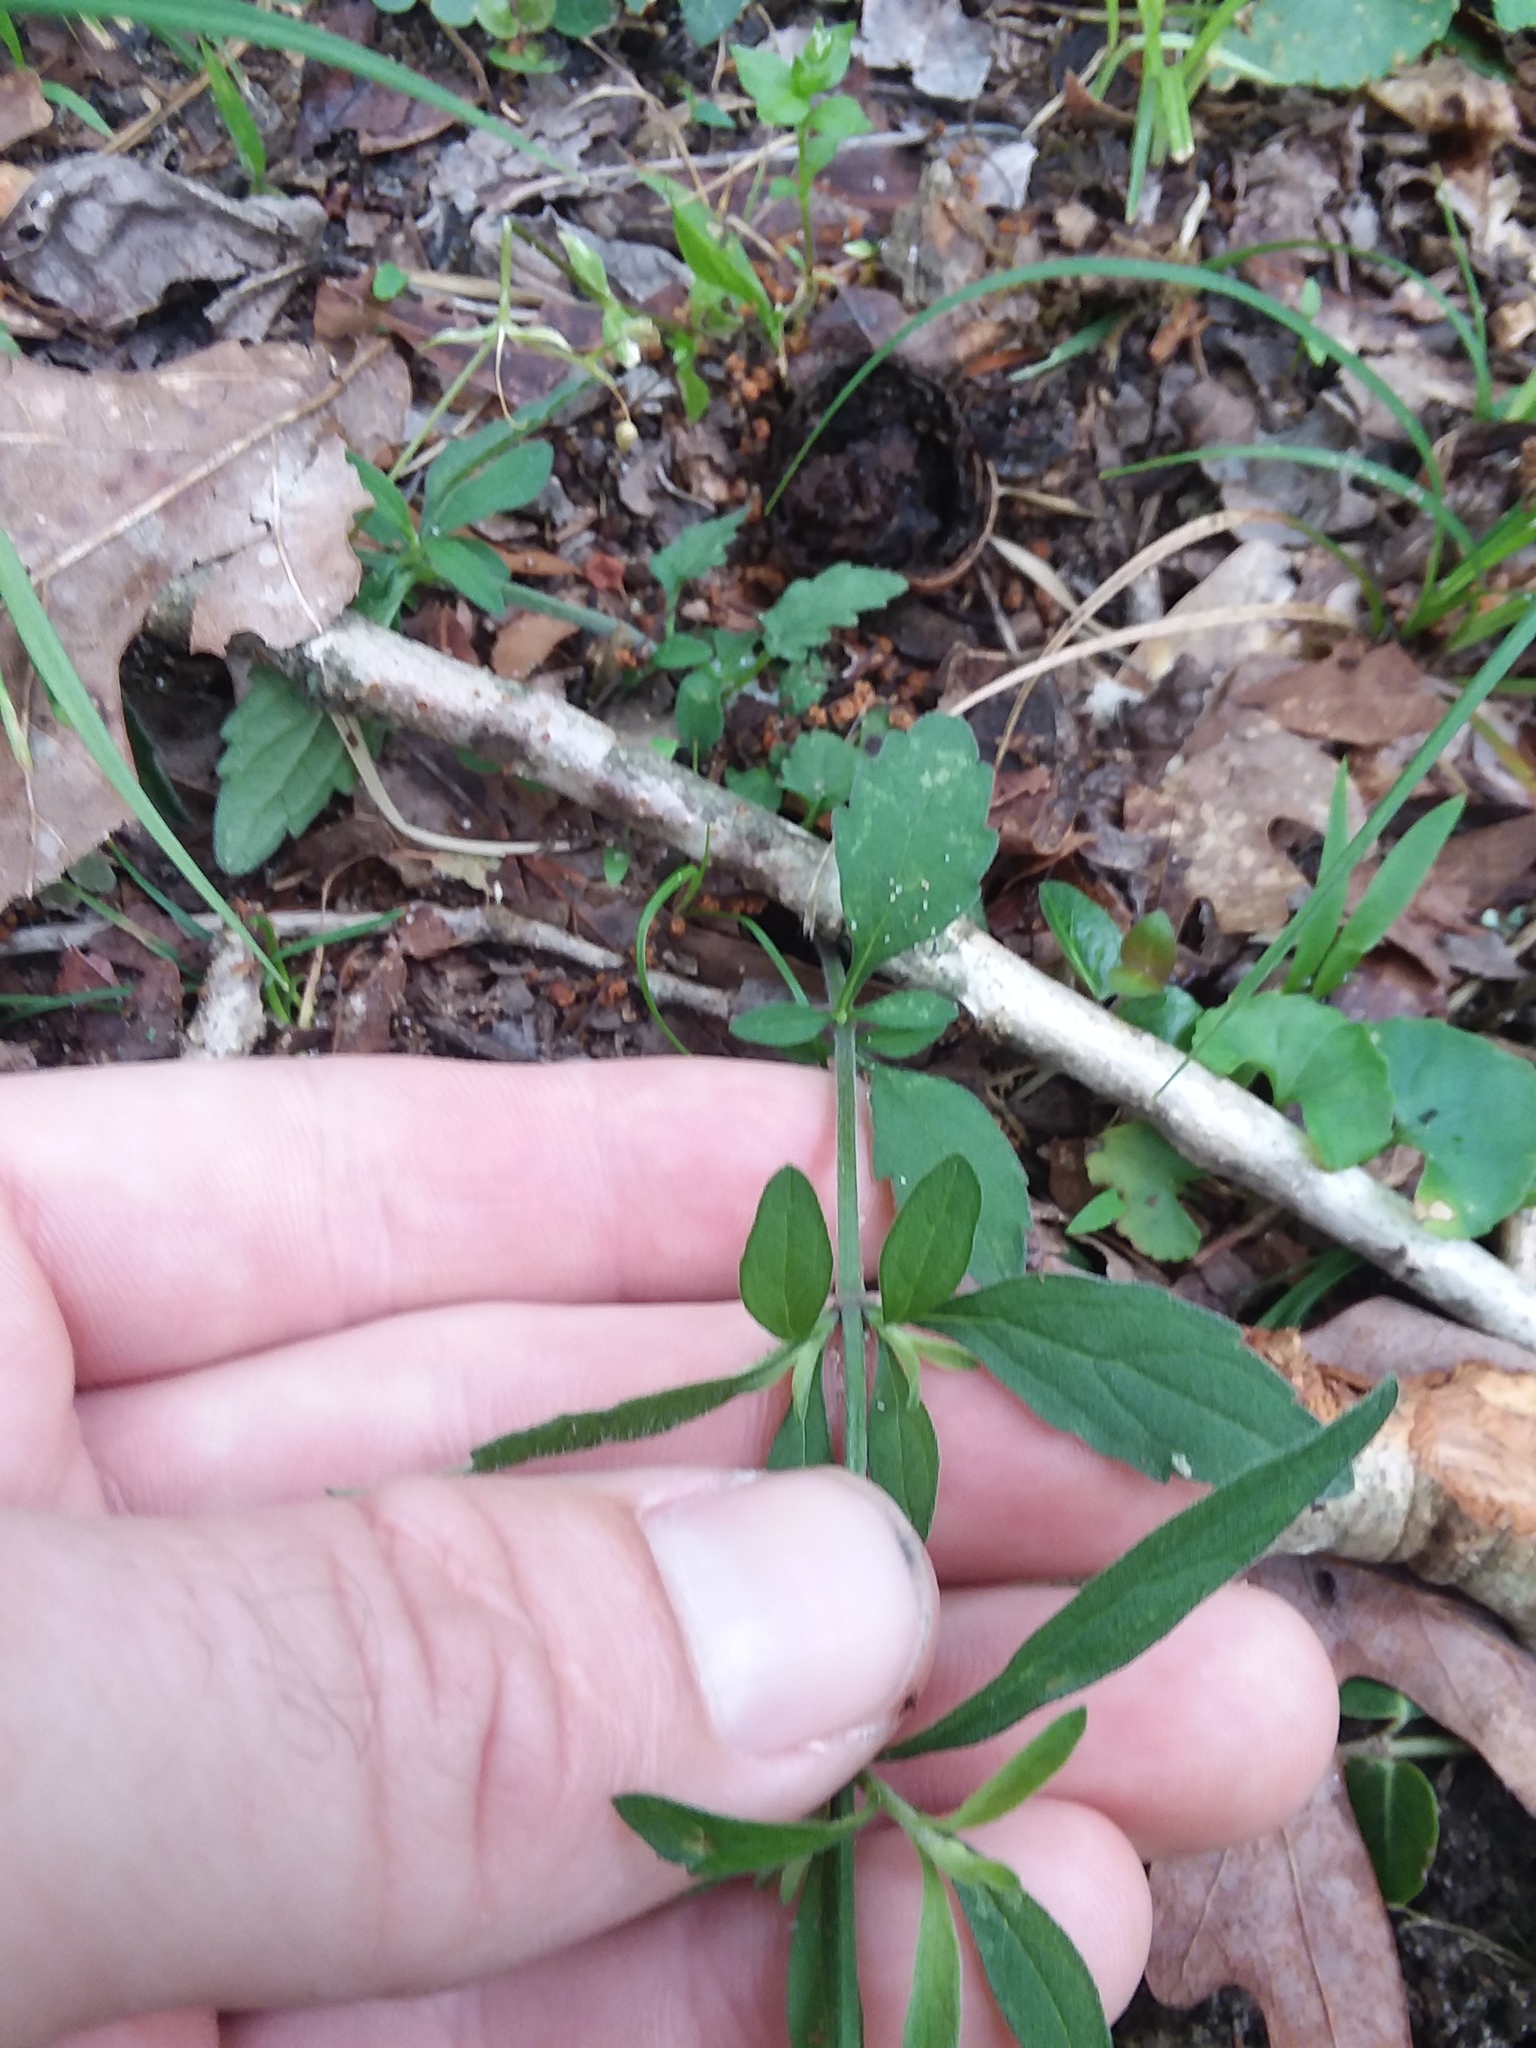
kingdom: Plantae
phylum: Tracheophyta
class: Magnoliopsida
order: Lamiales
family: Lamiaceae
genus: Scutellaria
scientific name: Scutellaria integrifolia
